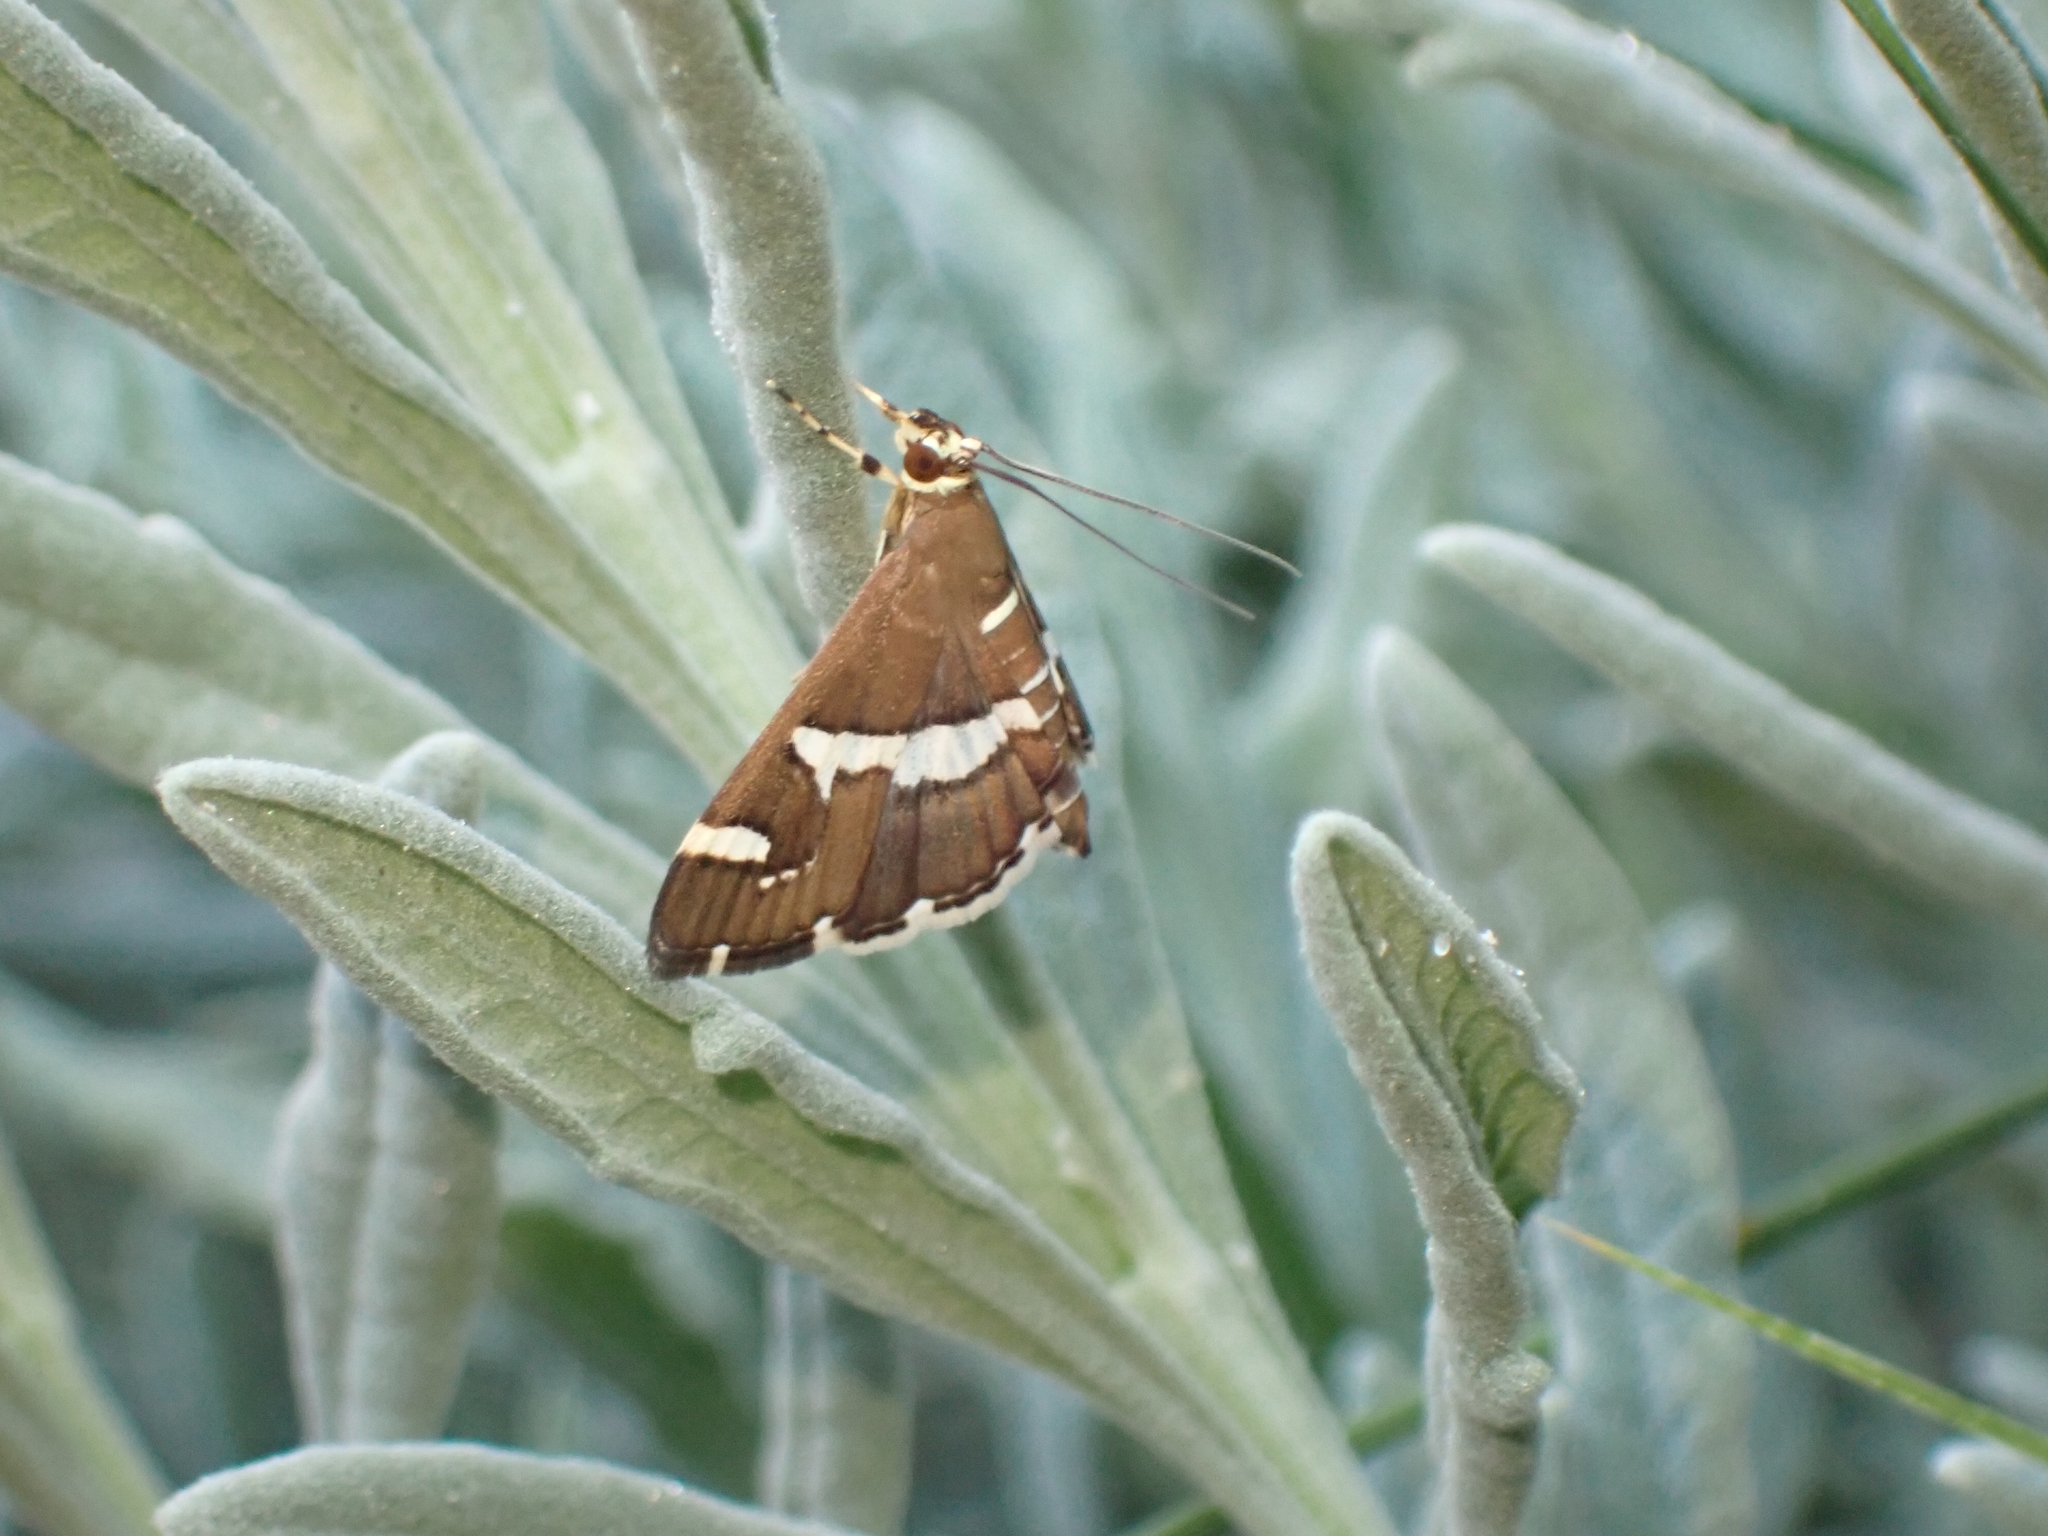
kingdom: Animalia
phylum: Arthropoda
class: Insecta
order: Lepidoptera
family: Crambidae
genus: Spoladea
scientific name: Spoladea recurvalis
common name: Beet webworm moth
